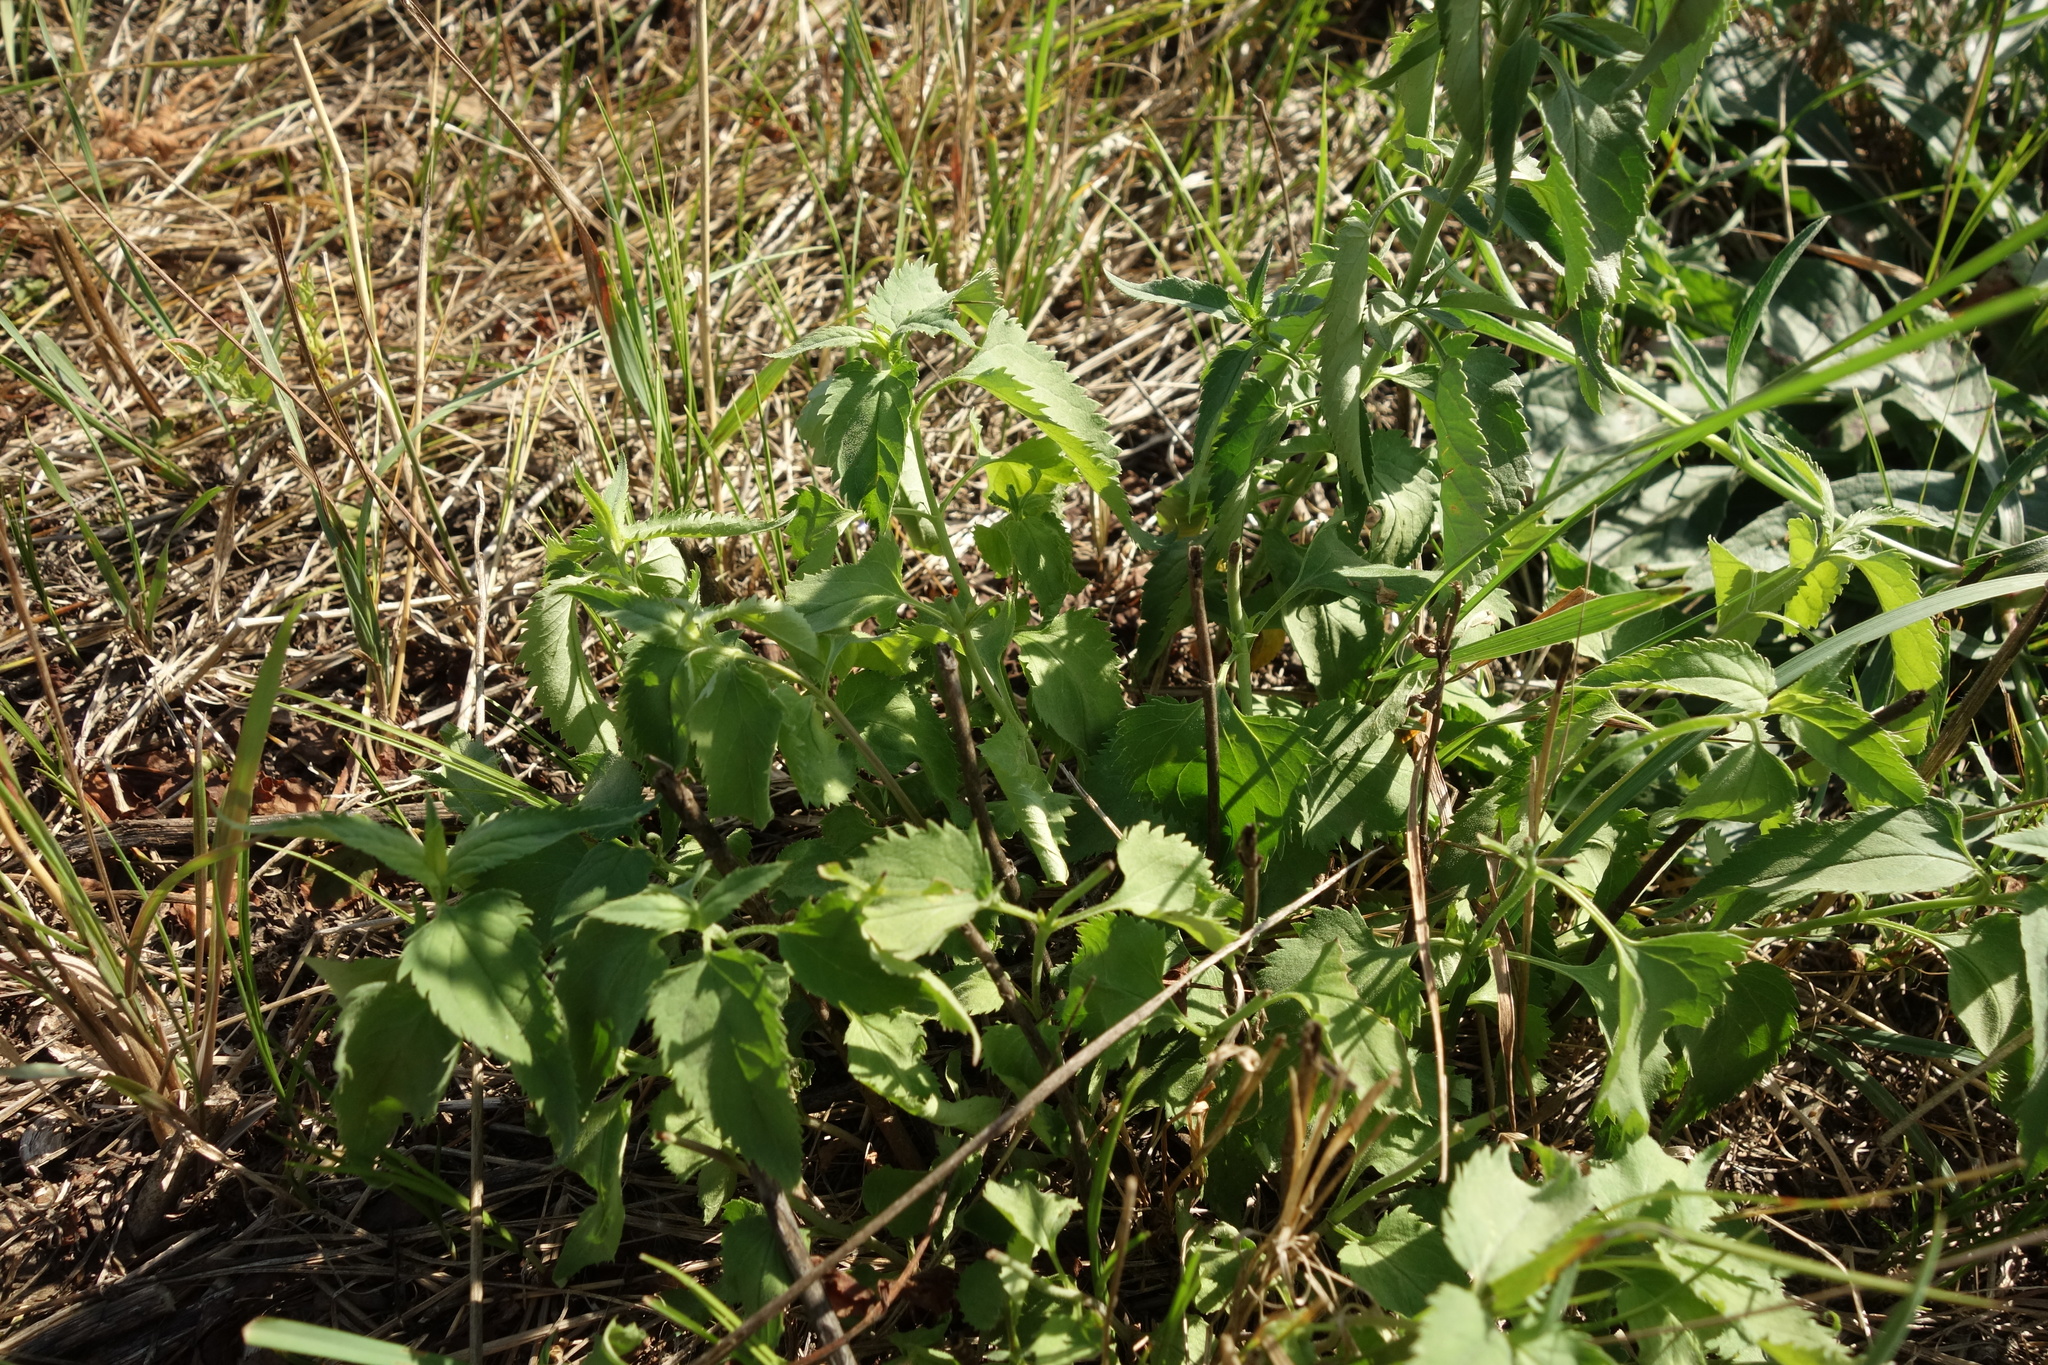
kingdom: Plantae
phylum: Tracheophyta
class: Magnoliopsida
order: Lamiales
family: Plantaginaceae
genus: Veronica
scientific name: Veronica longifolia
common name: Garden speedwell
